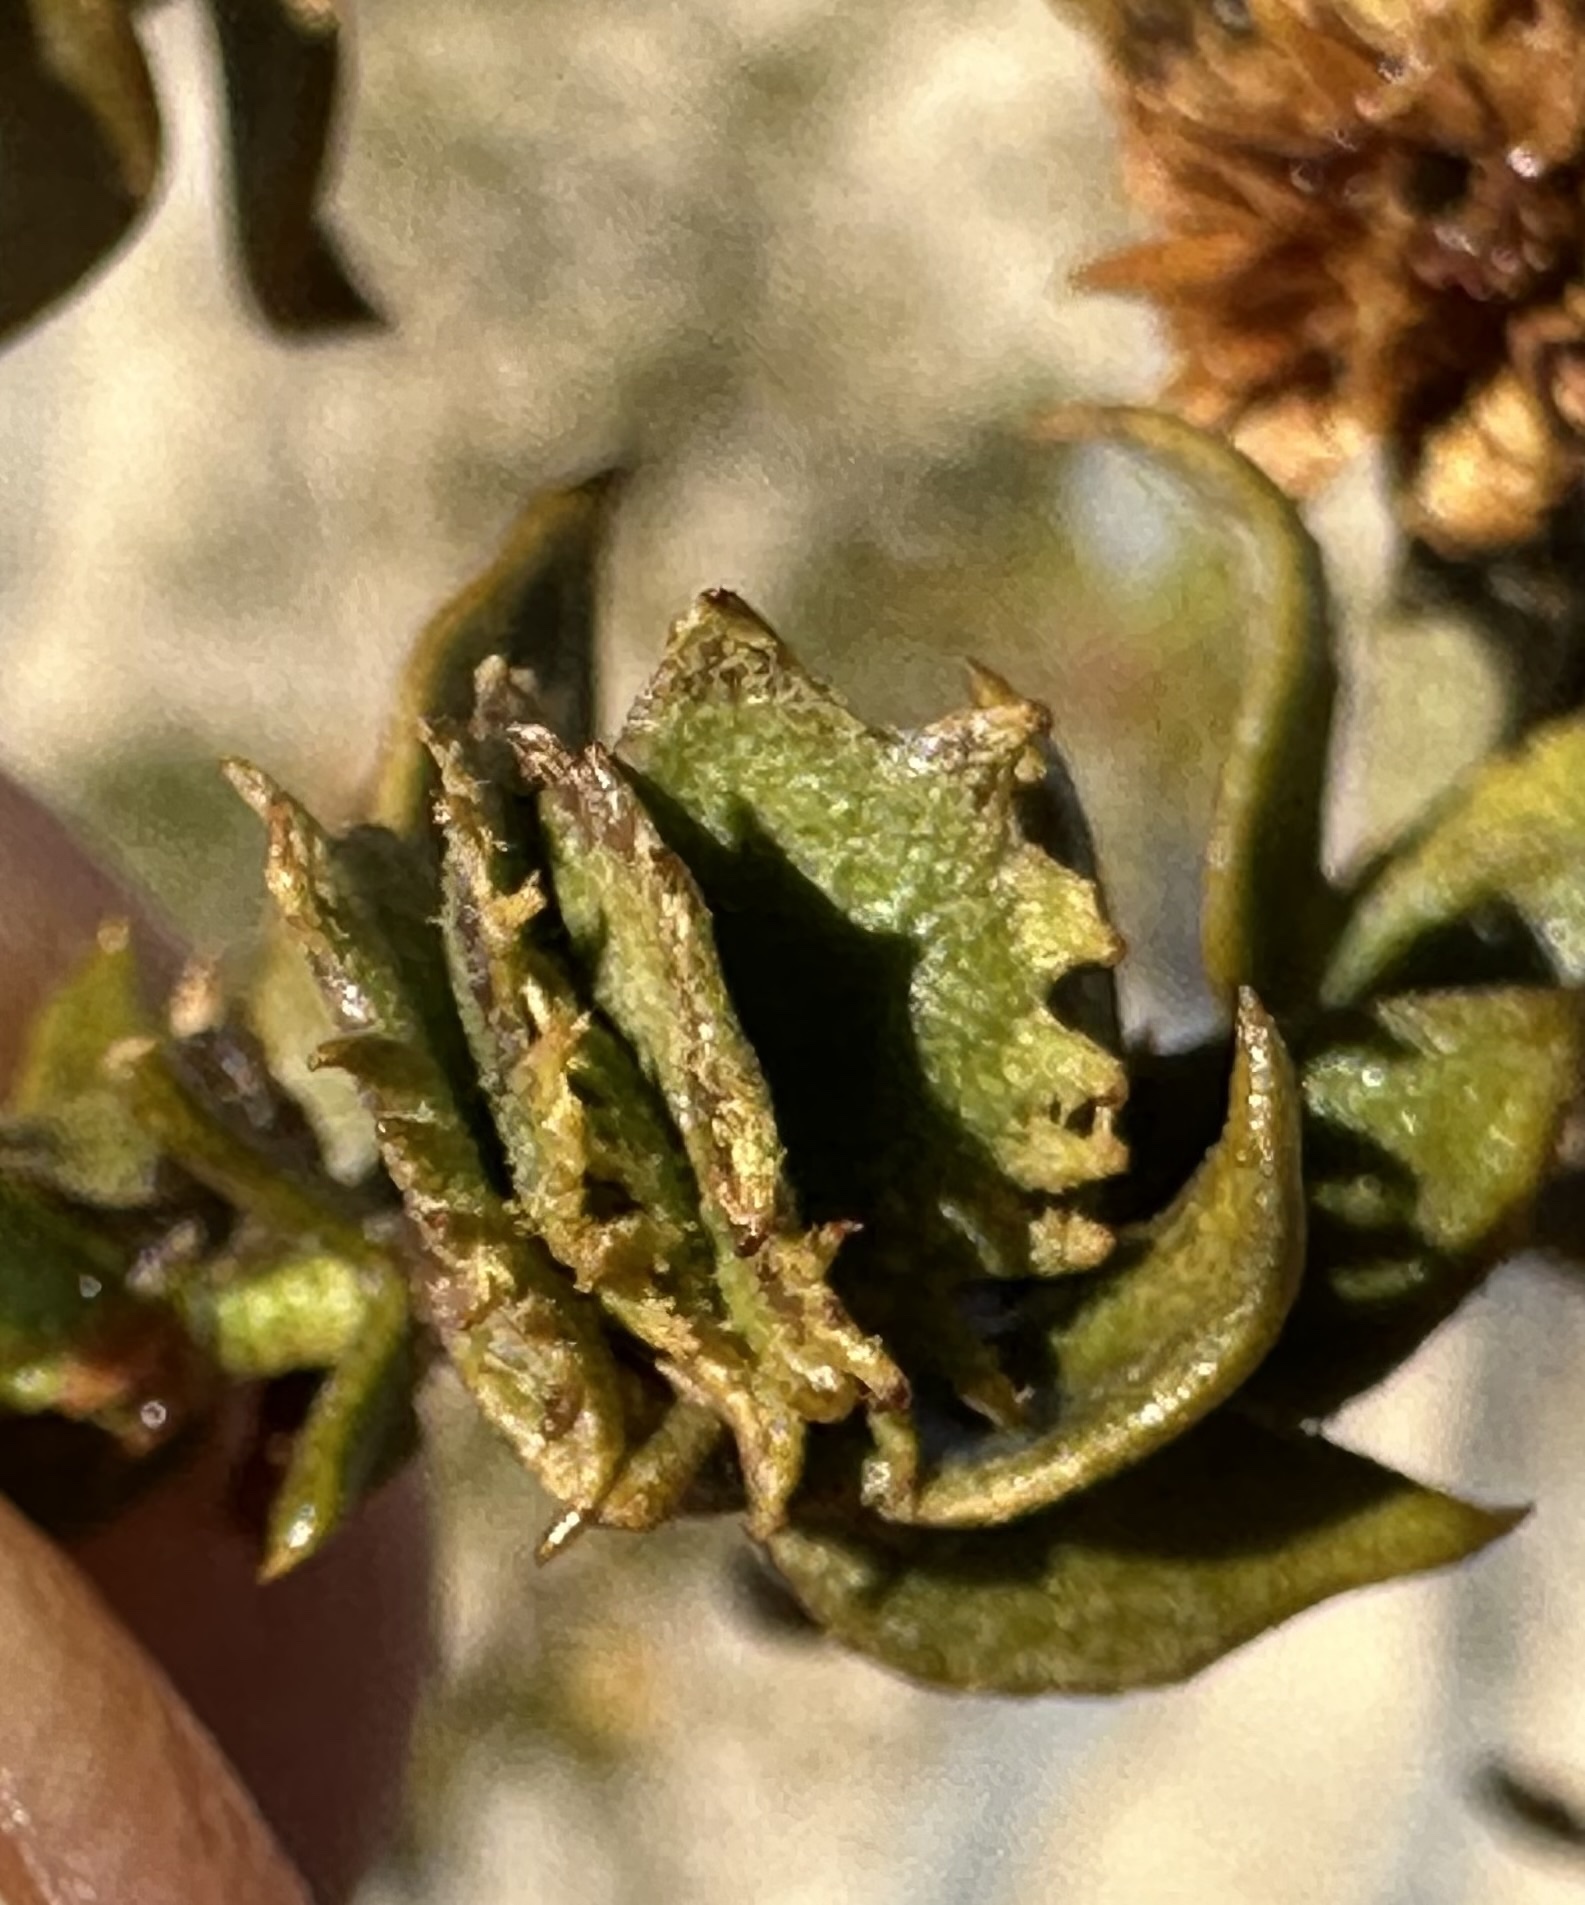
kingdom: Animalia
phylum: Arthropoda
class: Insecta
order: Diptera
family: Cecidomyiidae
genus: Asphondylia
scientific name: Asphondylia digitata
